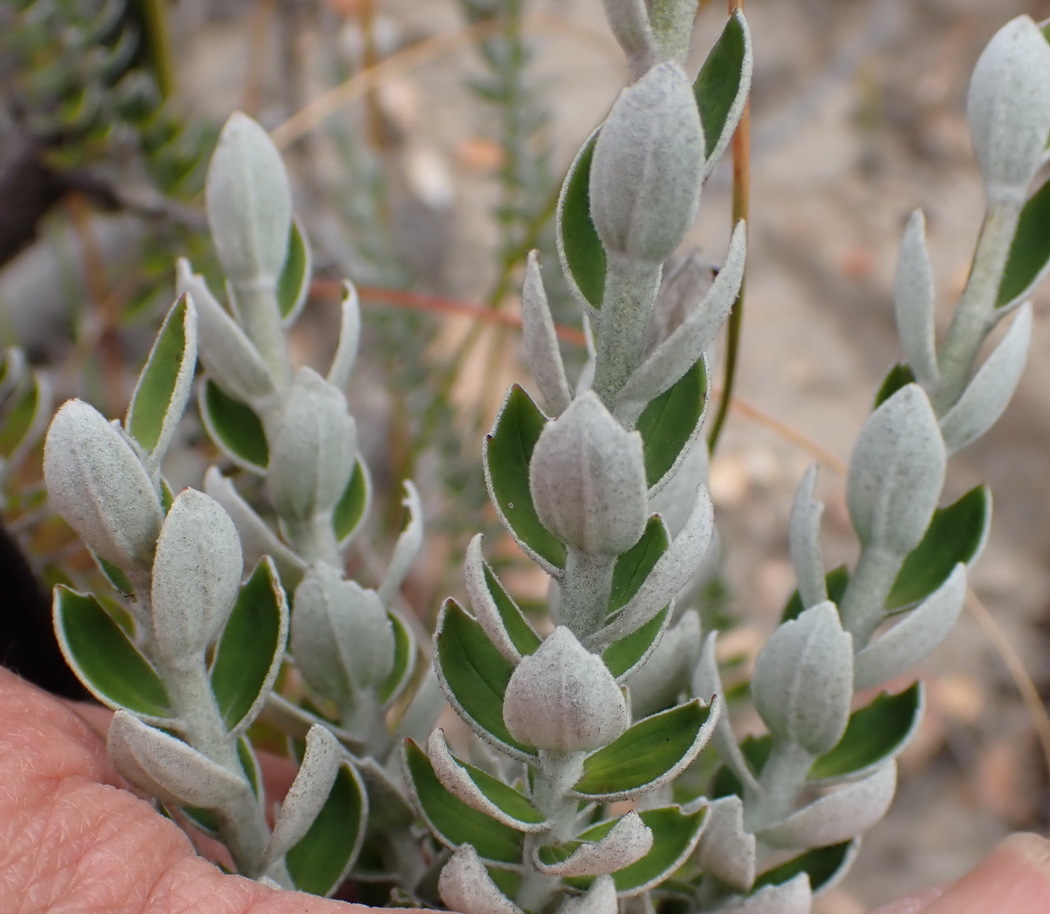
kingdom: Plantae
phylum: Tracheophyta
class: Magnoliopsida
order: Asterales
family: Asteraceae
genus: Senecio
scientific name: Senecio pauciflosculosus
